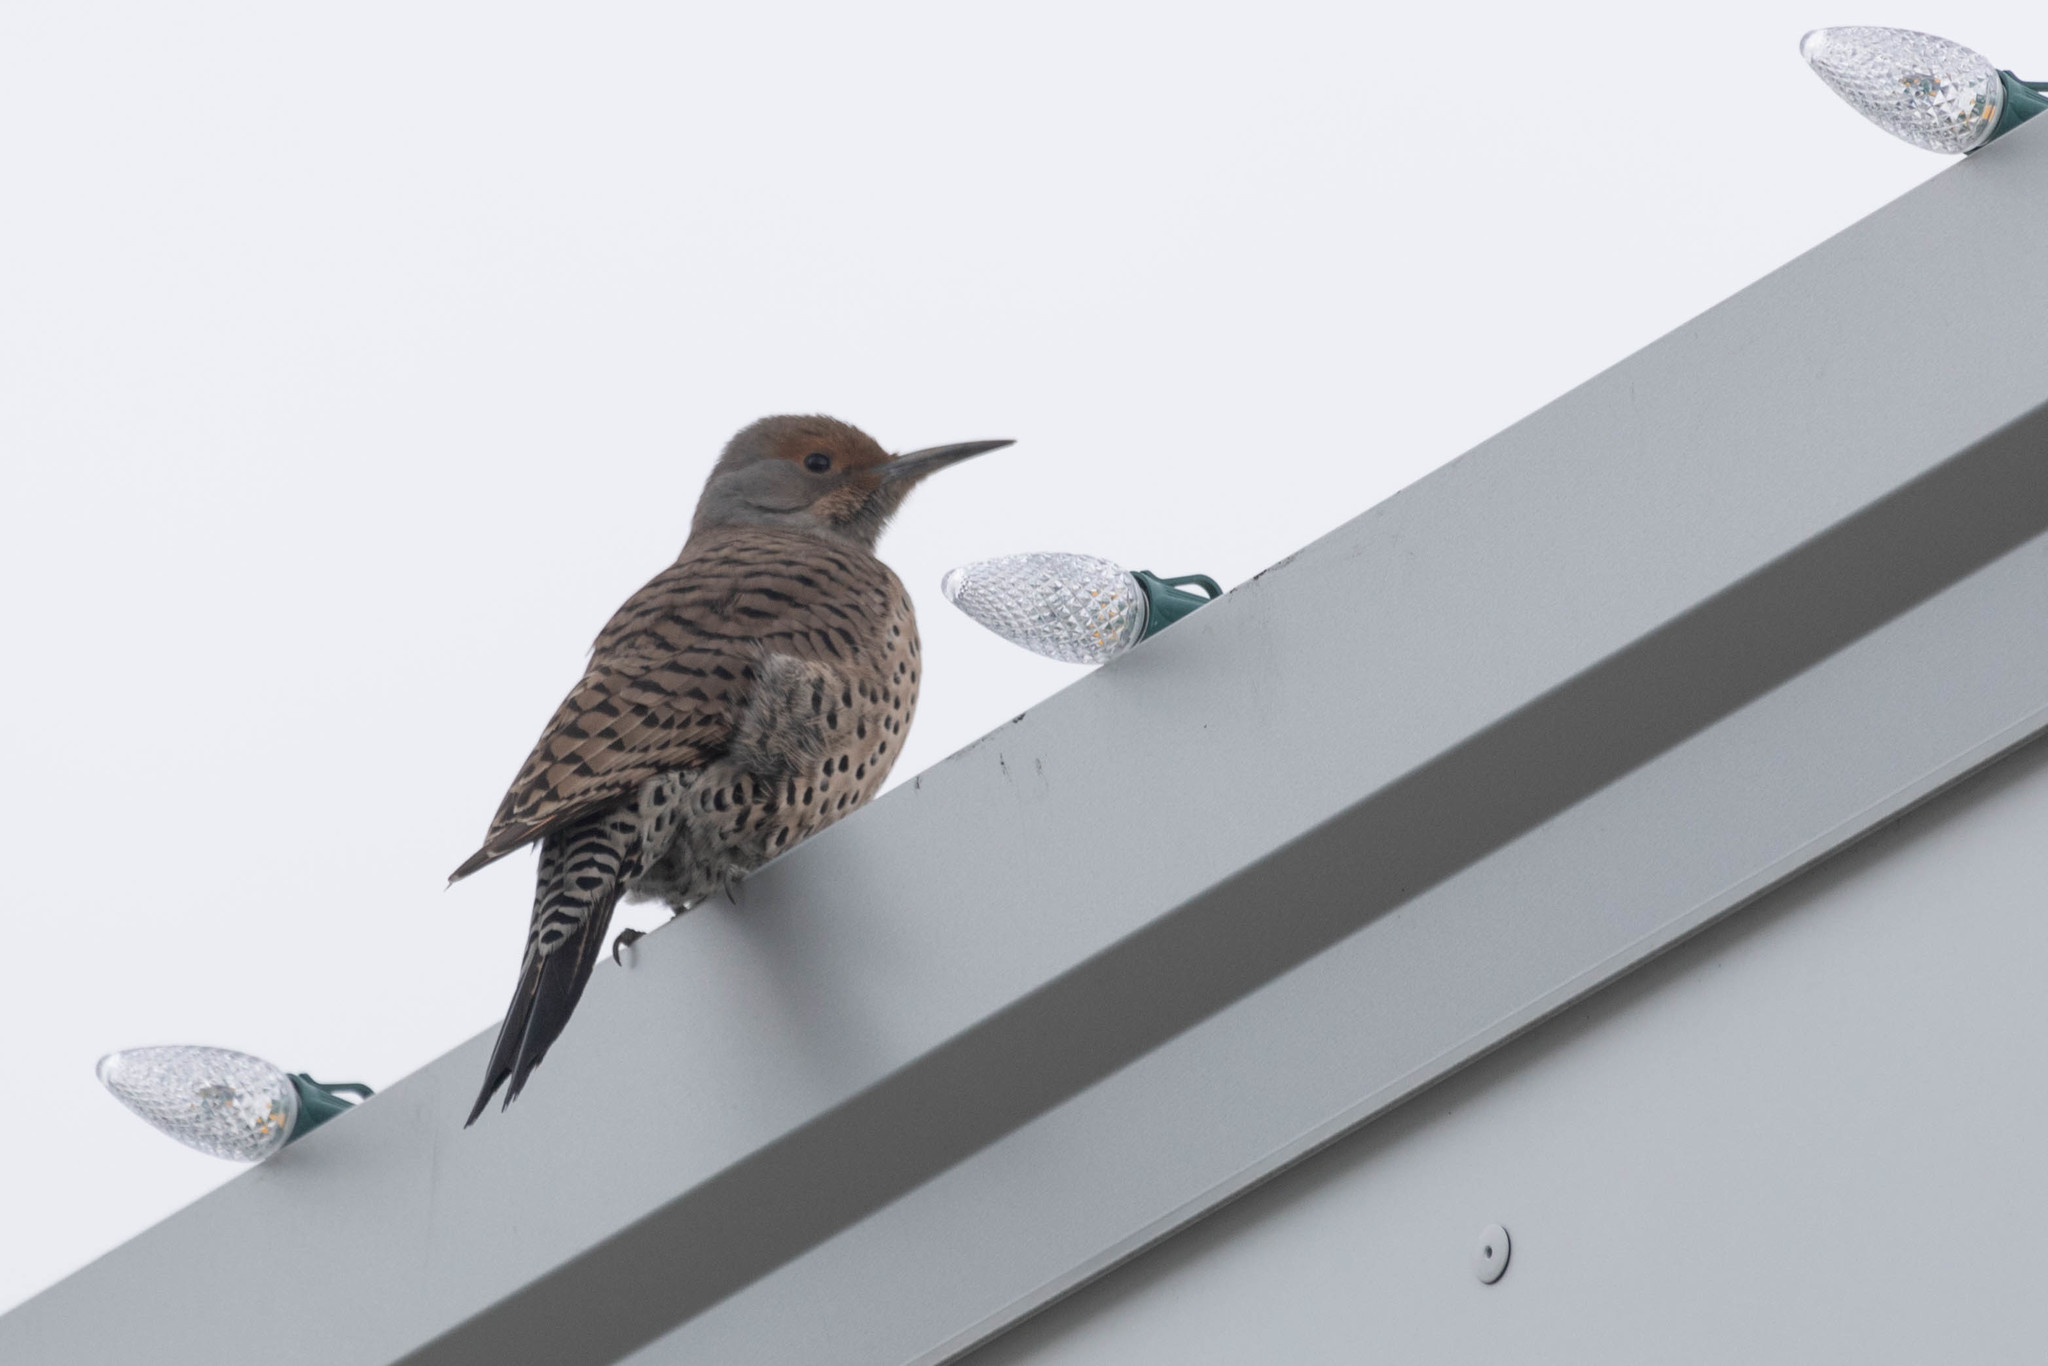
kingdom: Animalia
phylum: Chordata
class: Aves
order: Piciformes
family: Picidae
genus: Colaptes
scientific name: Colaptes auratus
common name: Northern flicker
